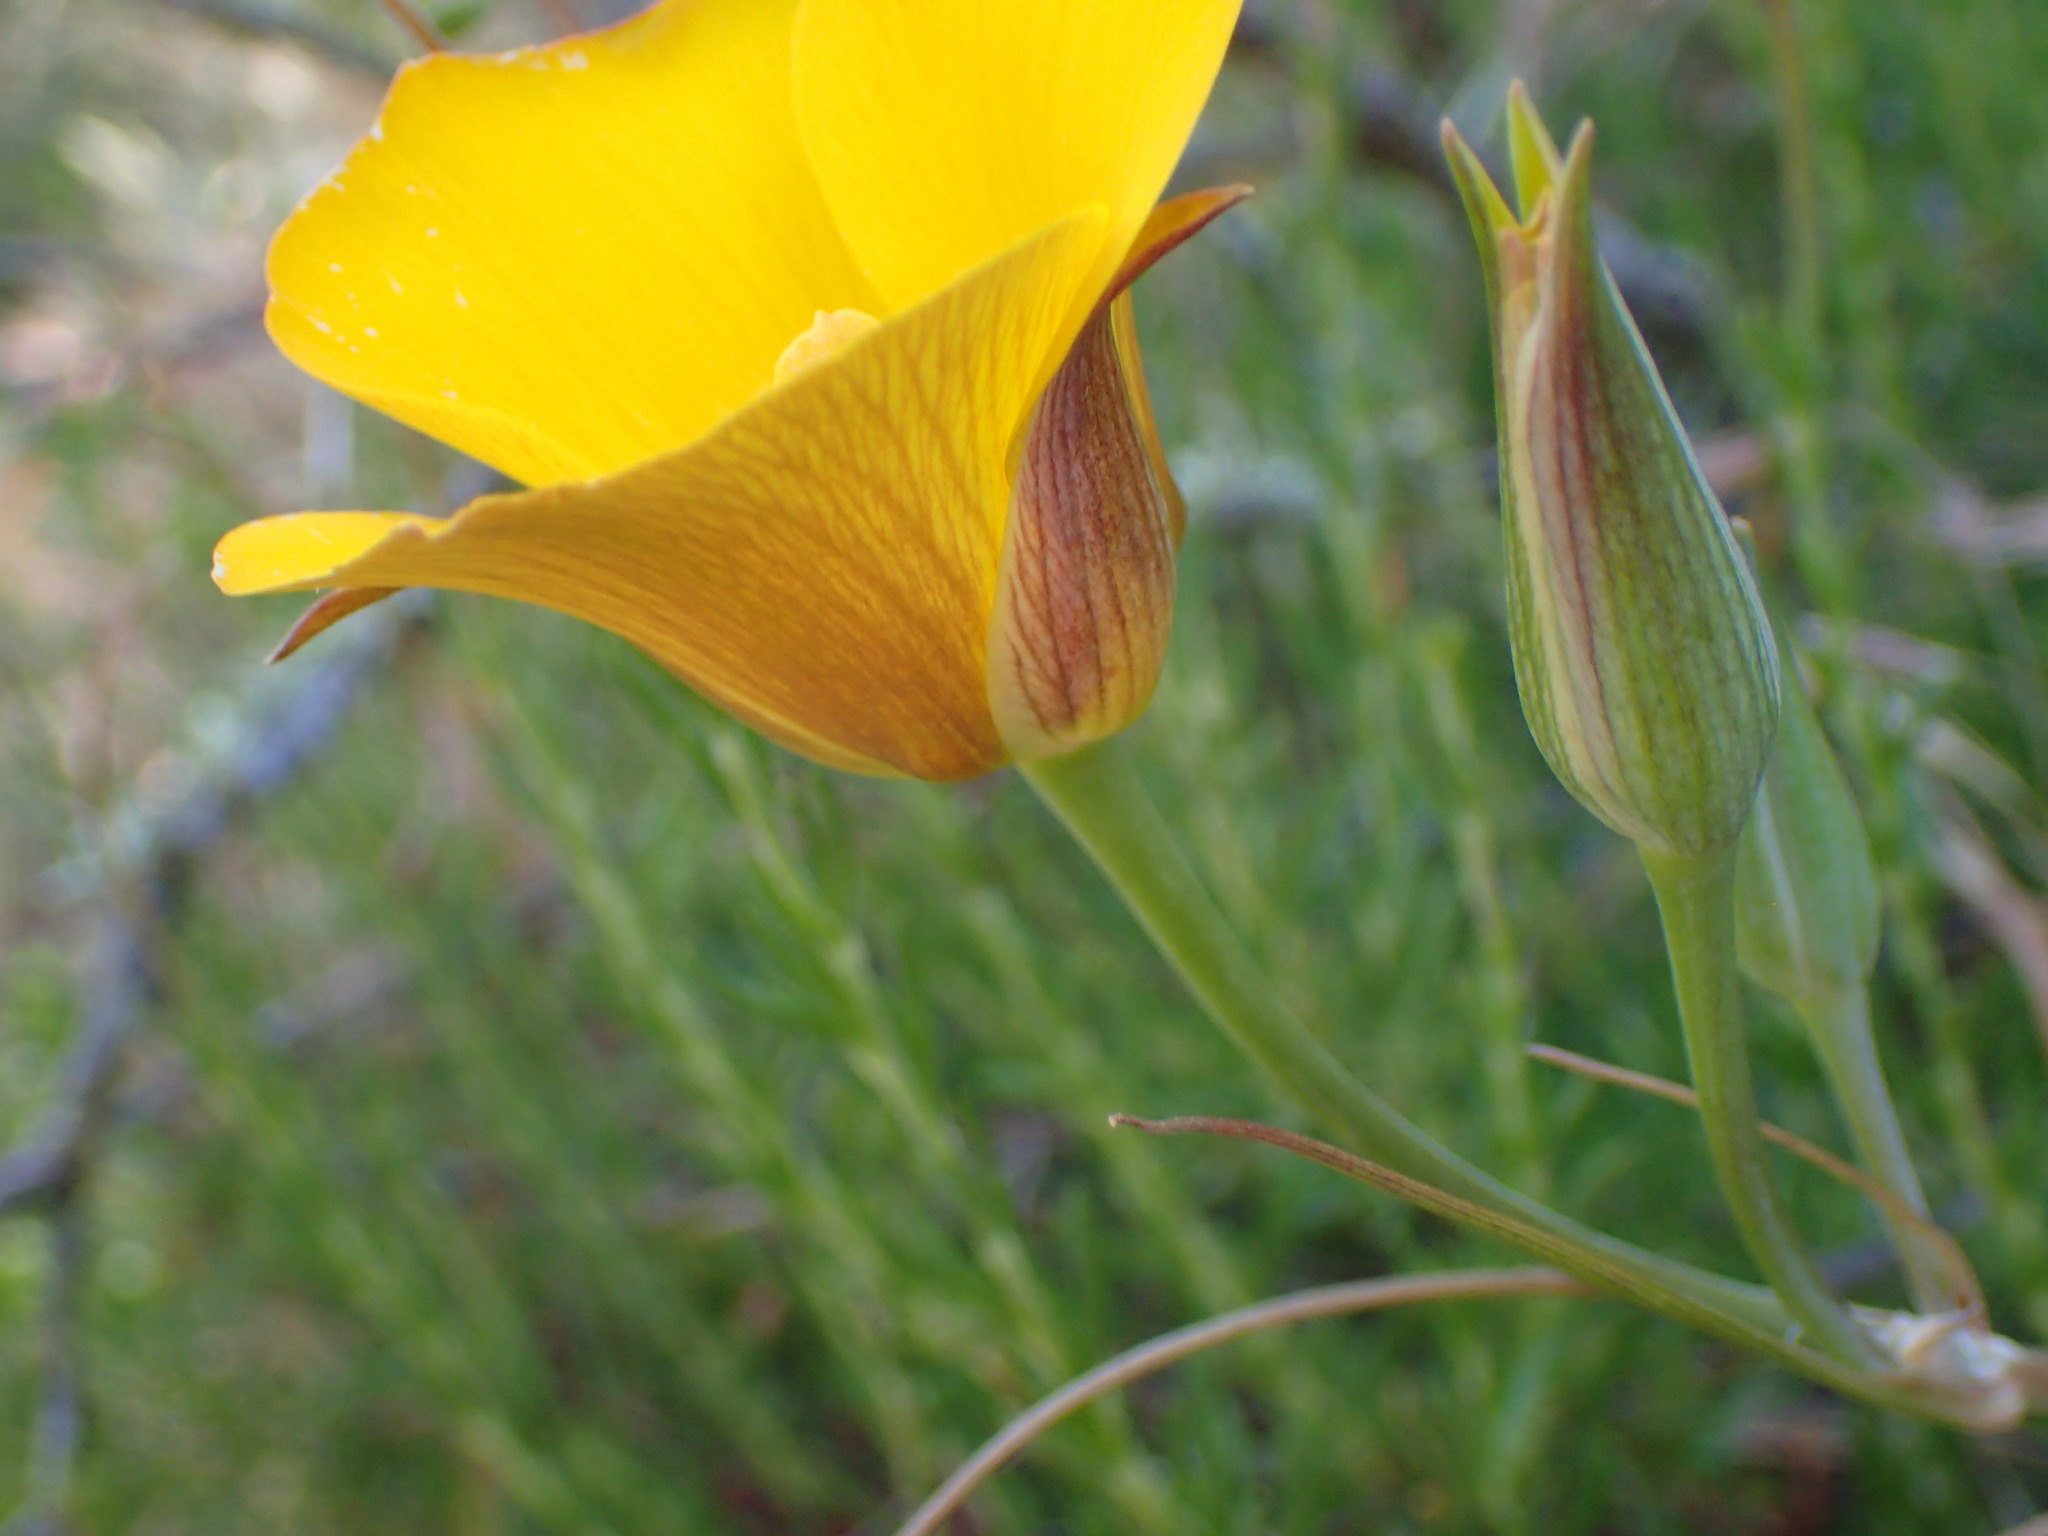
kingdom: Plantae
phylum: Tracheophyta
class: Liliopsida
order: Liliales
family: Liliaceae
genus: Calochortus
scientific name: Calochortus clavatus
